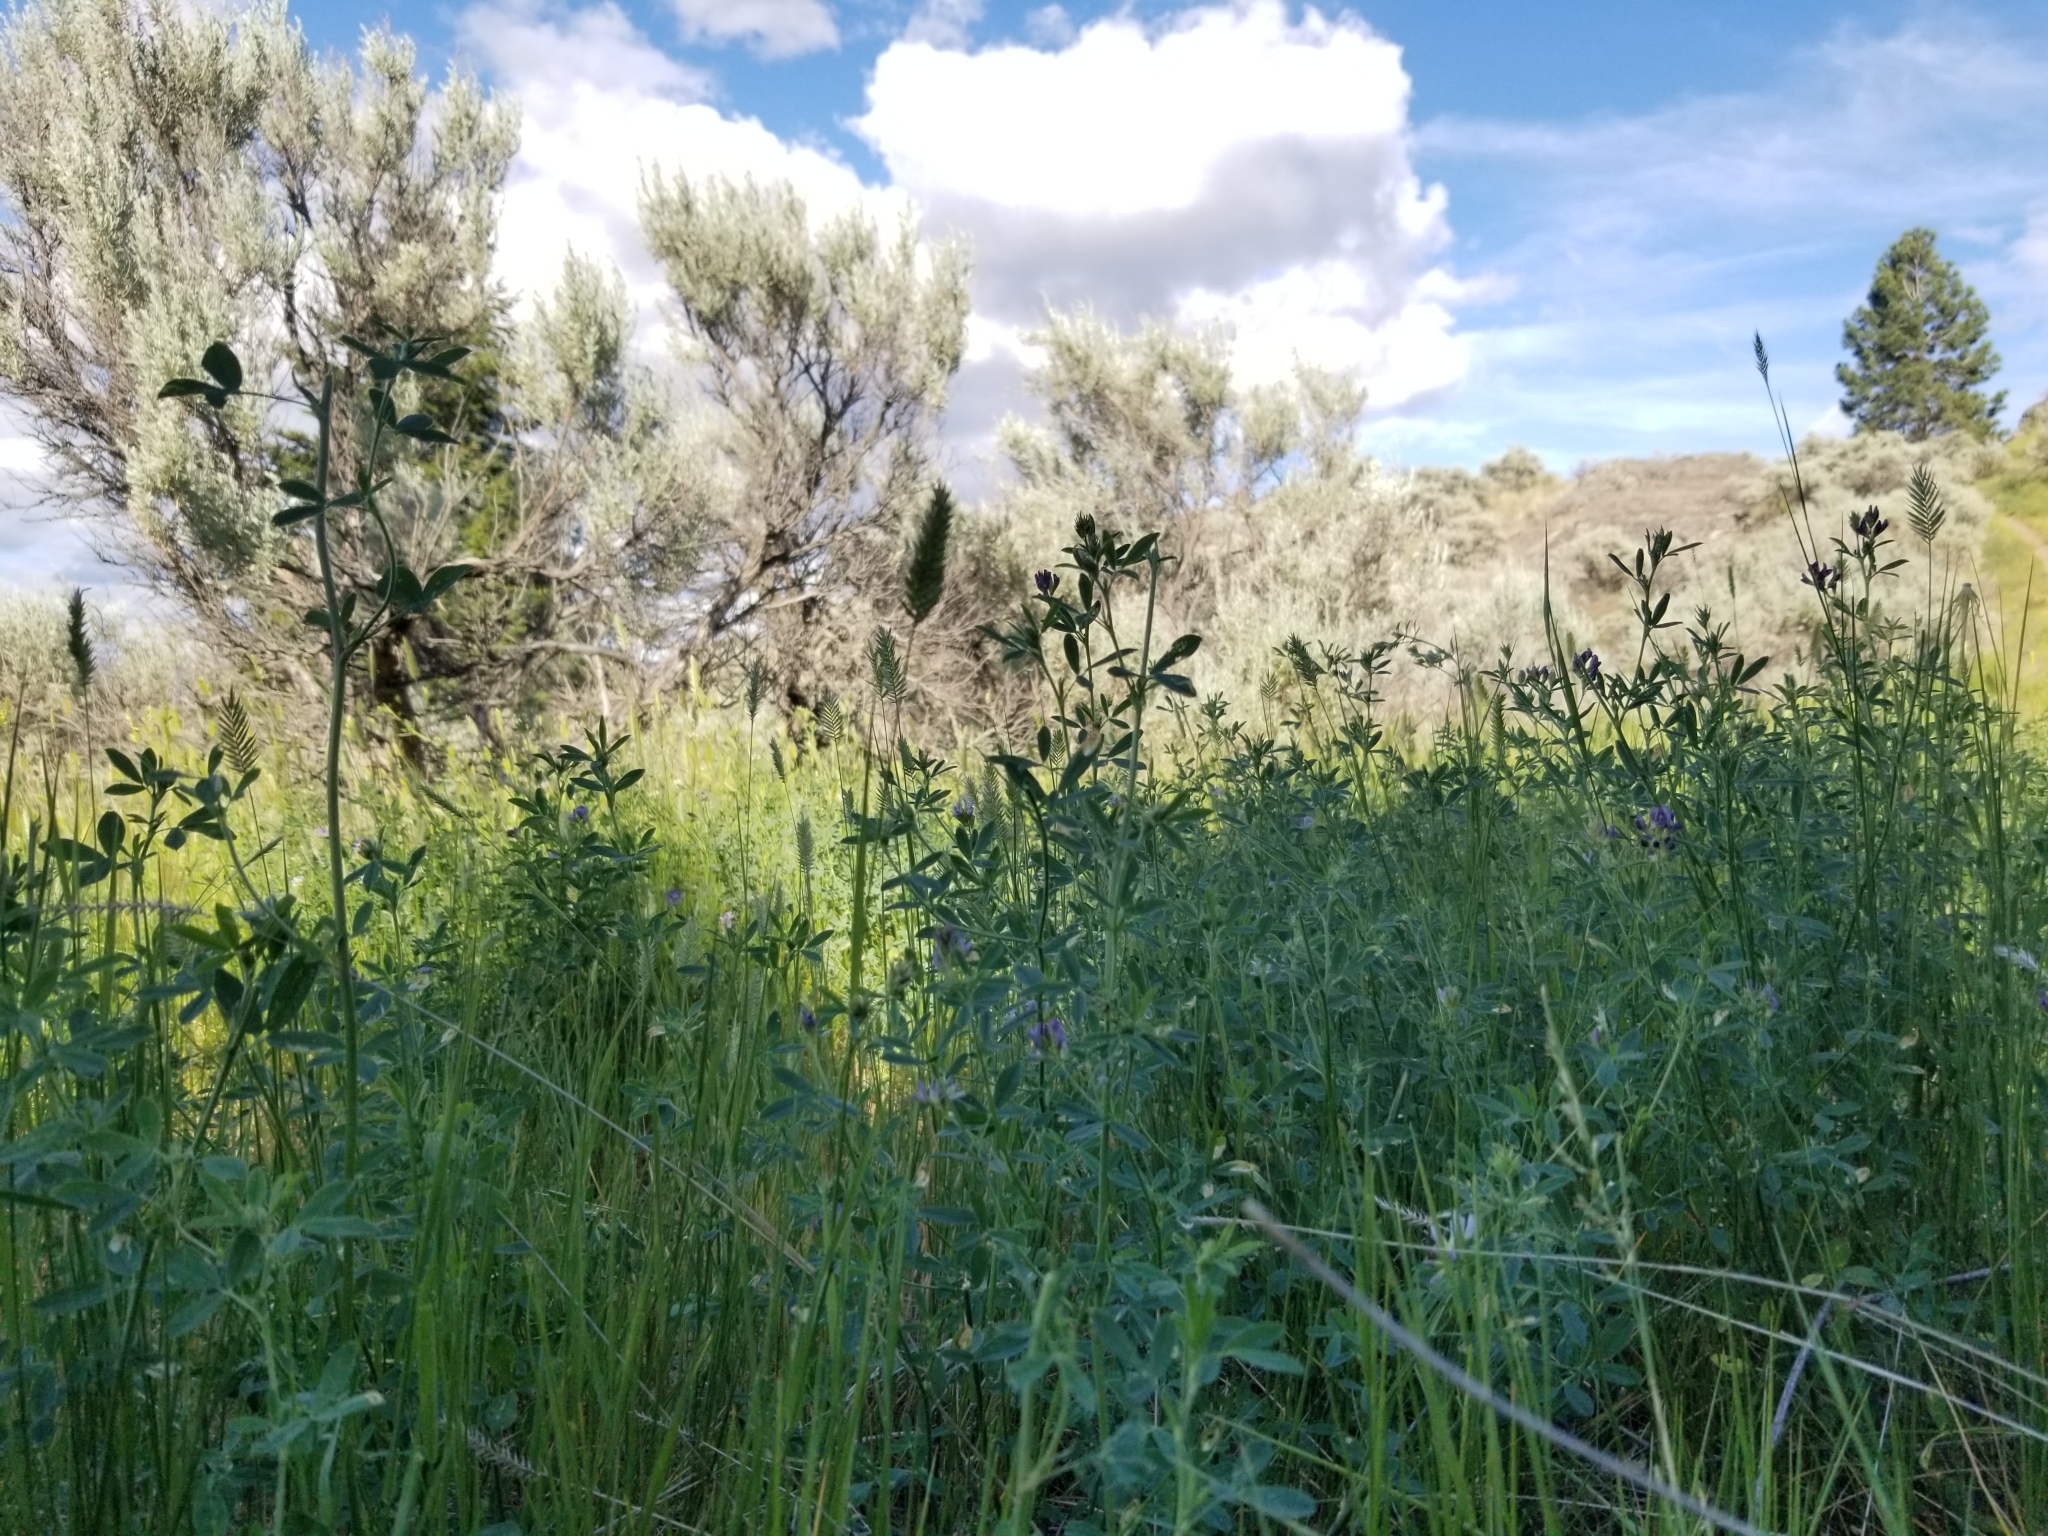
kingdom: Plantae
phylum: Tracheophyta
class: Magnoliopsida
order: Fabales
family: Fabaceae
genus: Medicago
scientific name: Medicago sativa
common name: Alfalfa
